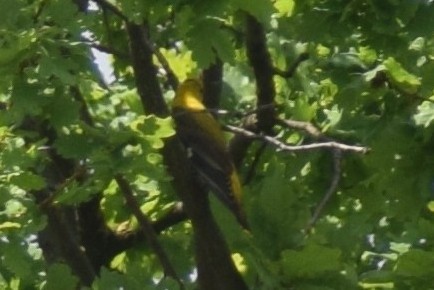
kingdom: Animalia
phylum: Chordata
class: Aves
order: Passeriformes
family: Oriolidae
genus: Oriolus
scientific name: Oriolus oriolus
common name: Eurasian golden oriole
